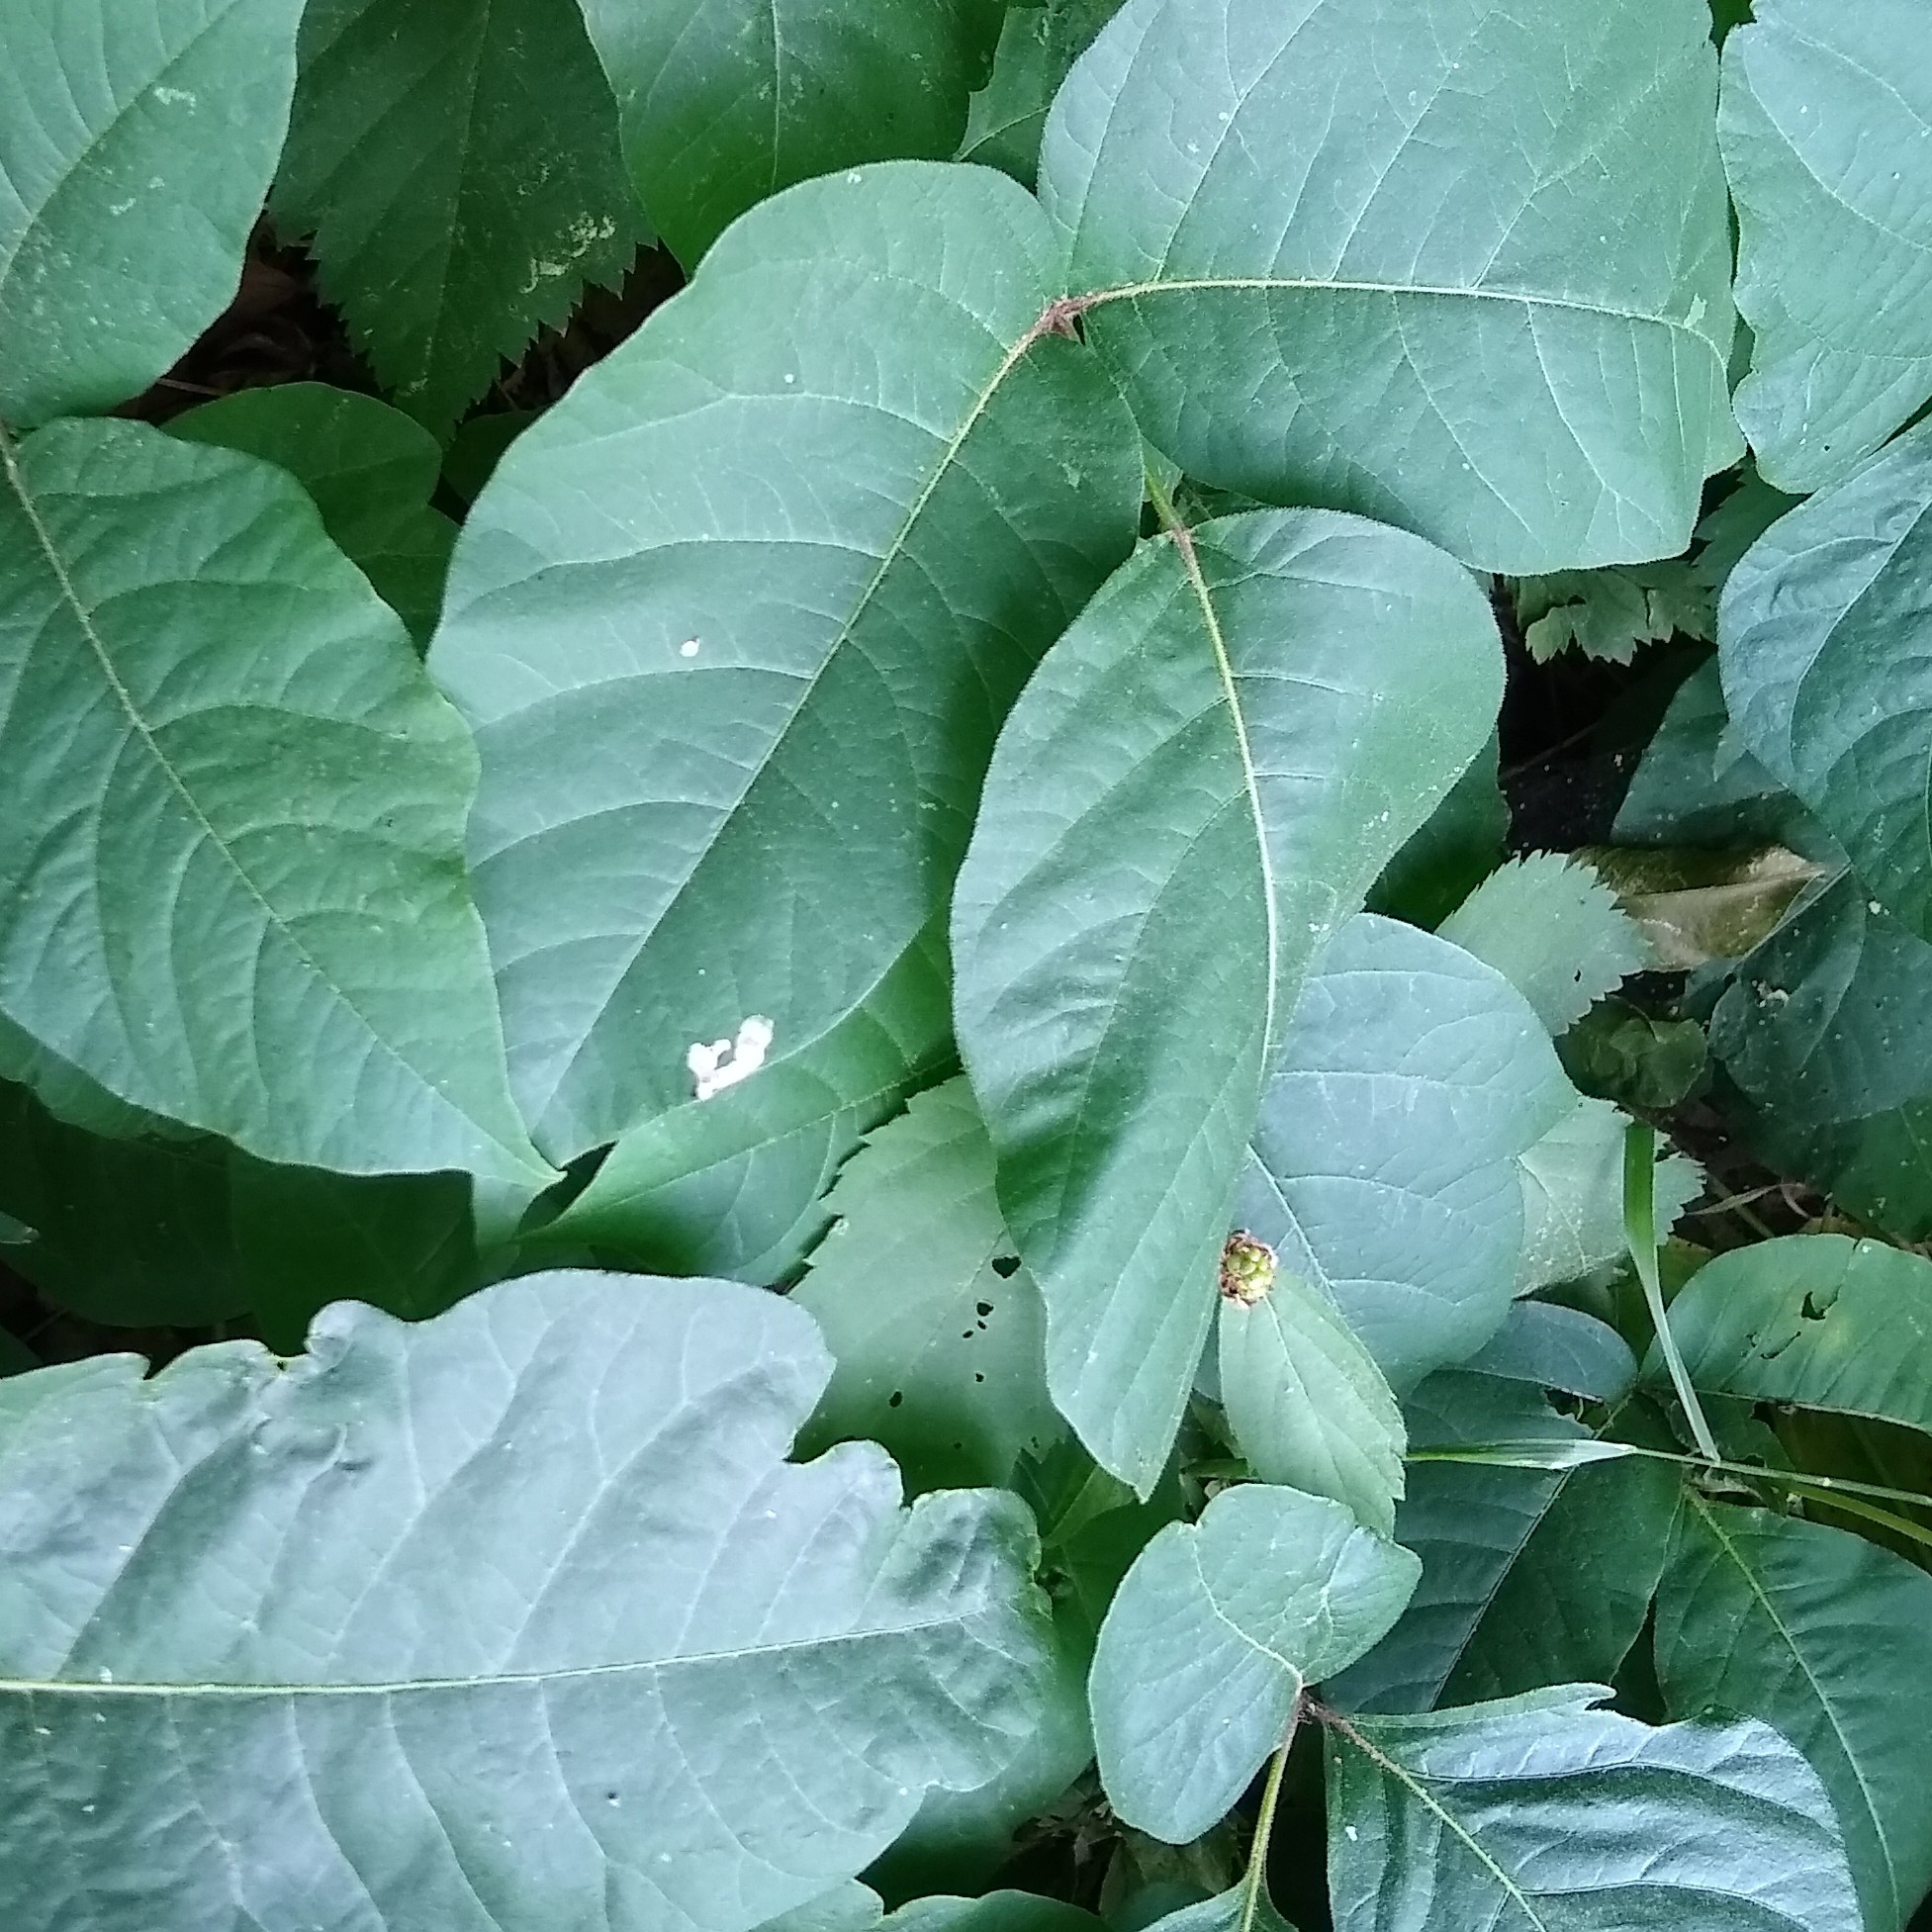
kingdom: Animalia
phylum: Arthropoda
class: Insecta
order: Lepidoptera
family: Gracillariidae
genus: Cameraria
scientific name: Cameraria guttifinitella
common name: Poison ivy leaf-miner moth
